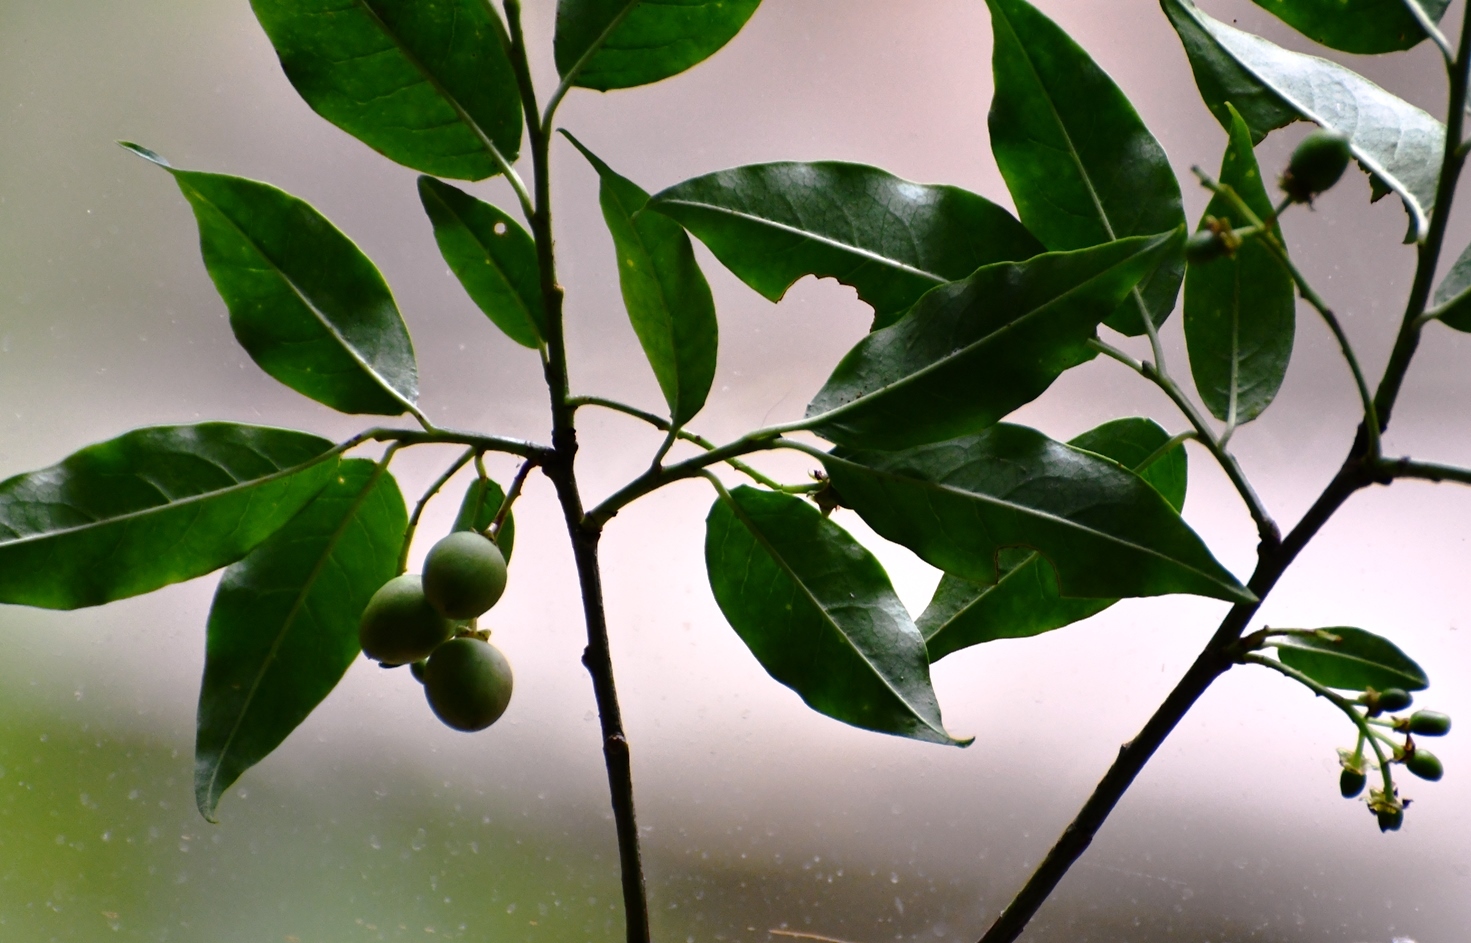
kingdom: Plantae
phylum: Tracheophyta
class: Magnoliopsida
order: Rosales
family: Rosaceae
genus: Prunus
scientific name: Prunus rhamnoides
